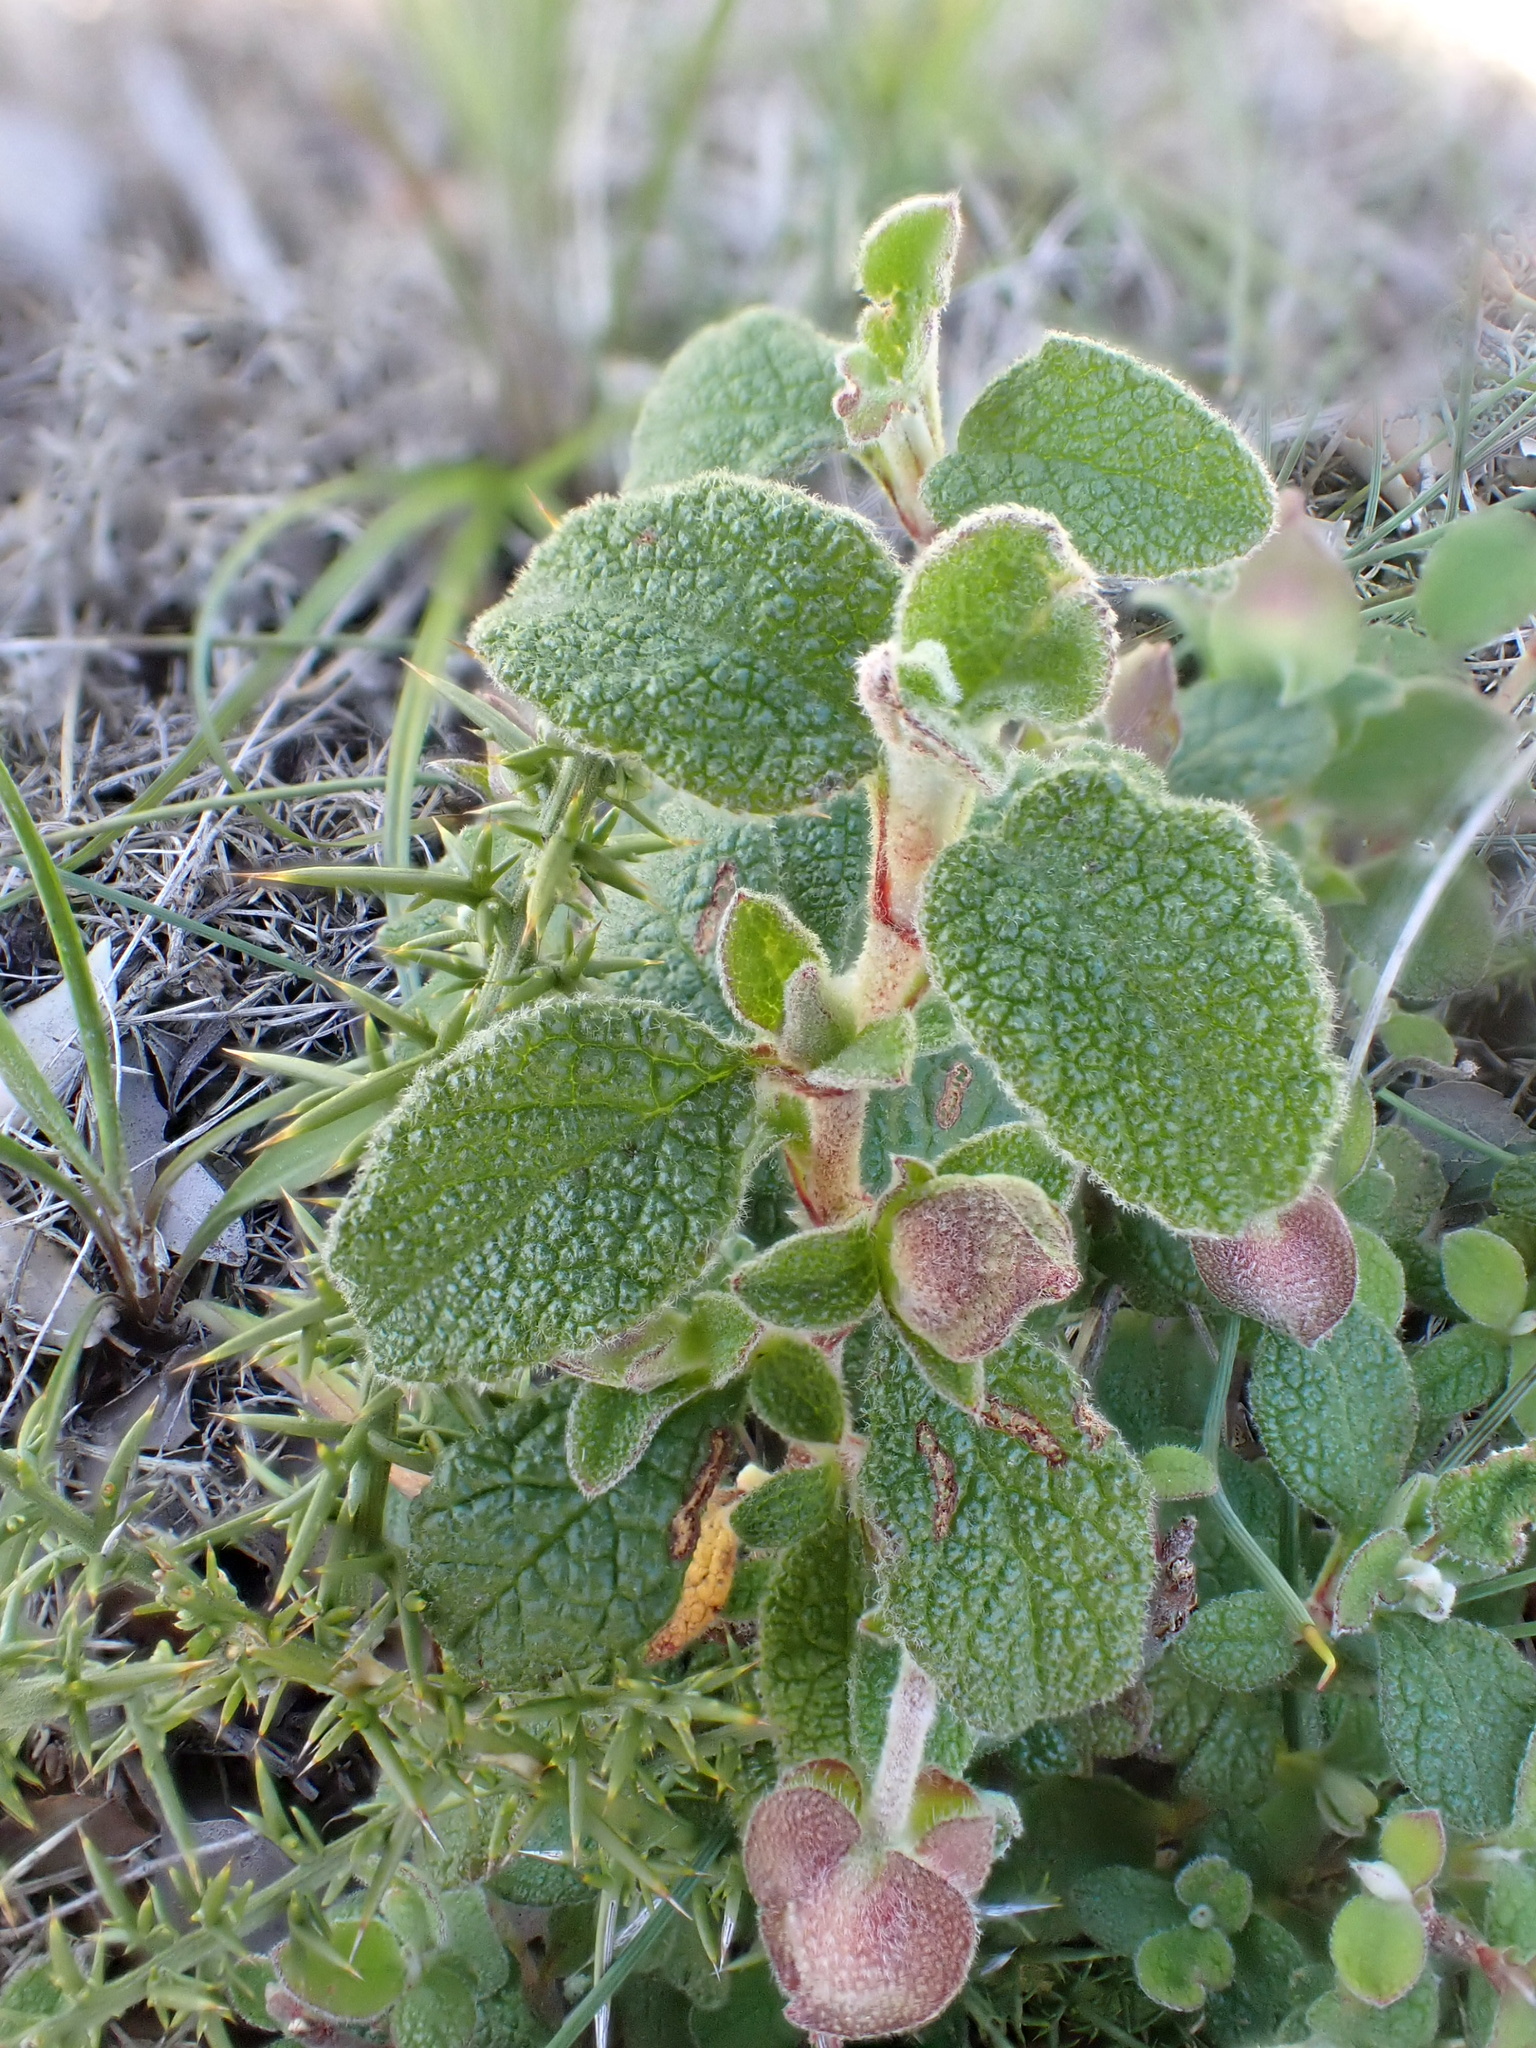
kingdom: Plantae
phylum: Tracheophyta
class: Magnoliopsida
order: Malvales
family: Cistaceae
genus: Cistus
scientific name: Cistus salviifolius
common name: Salvia cistus
